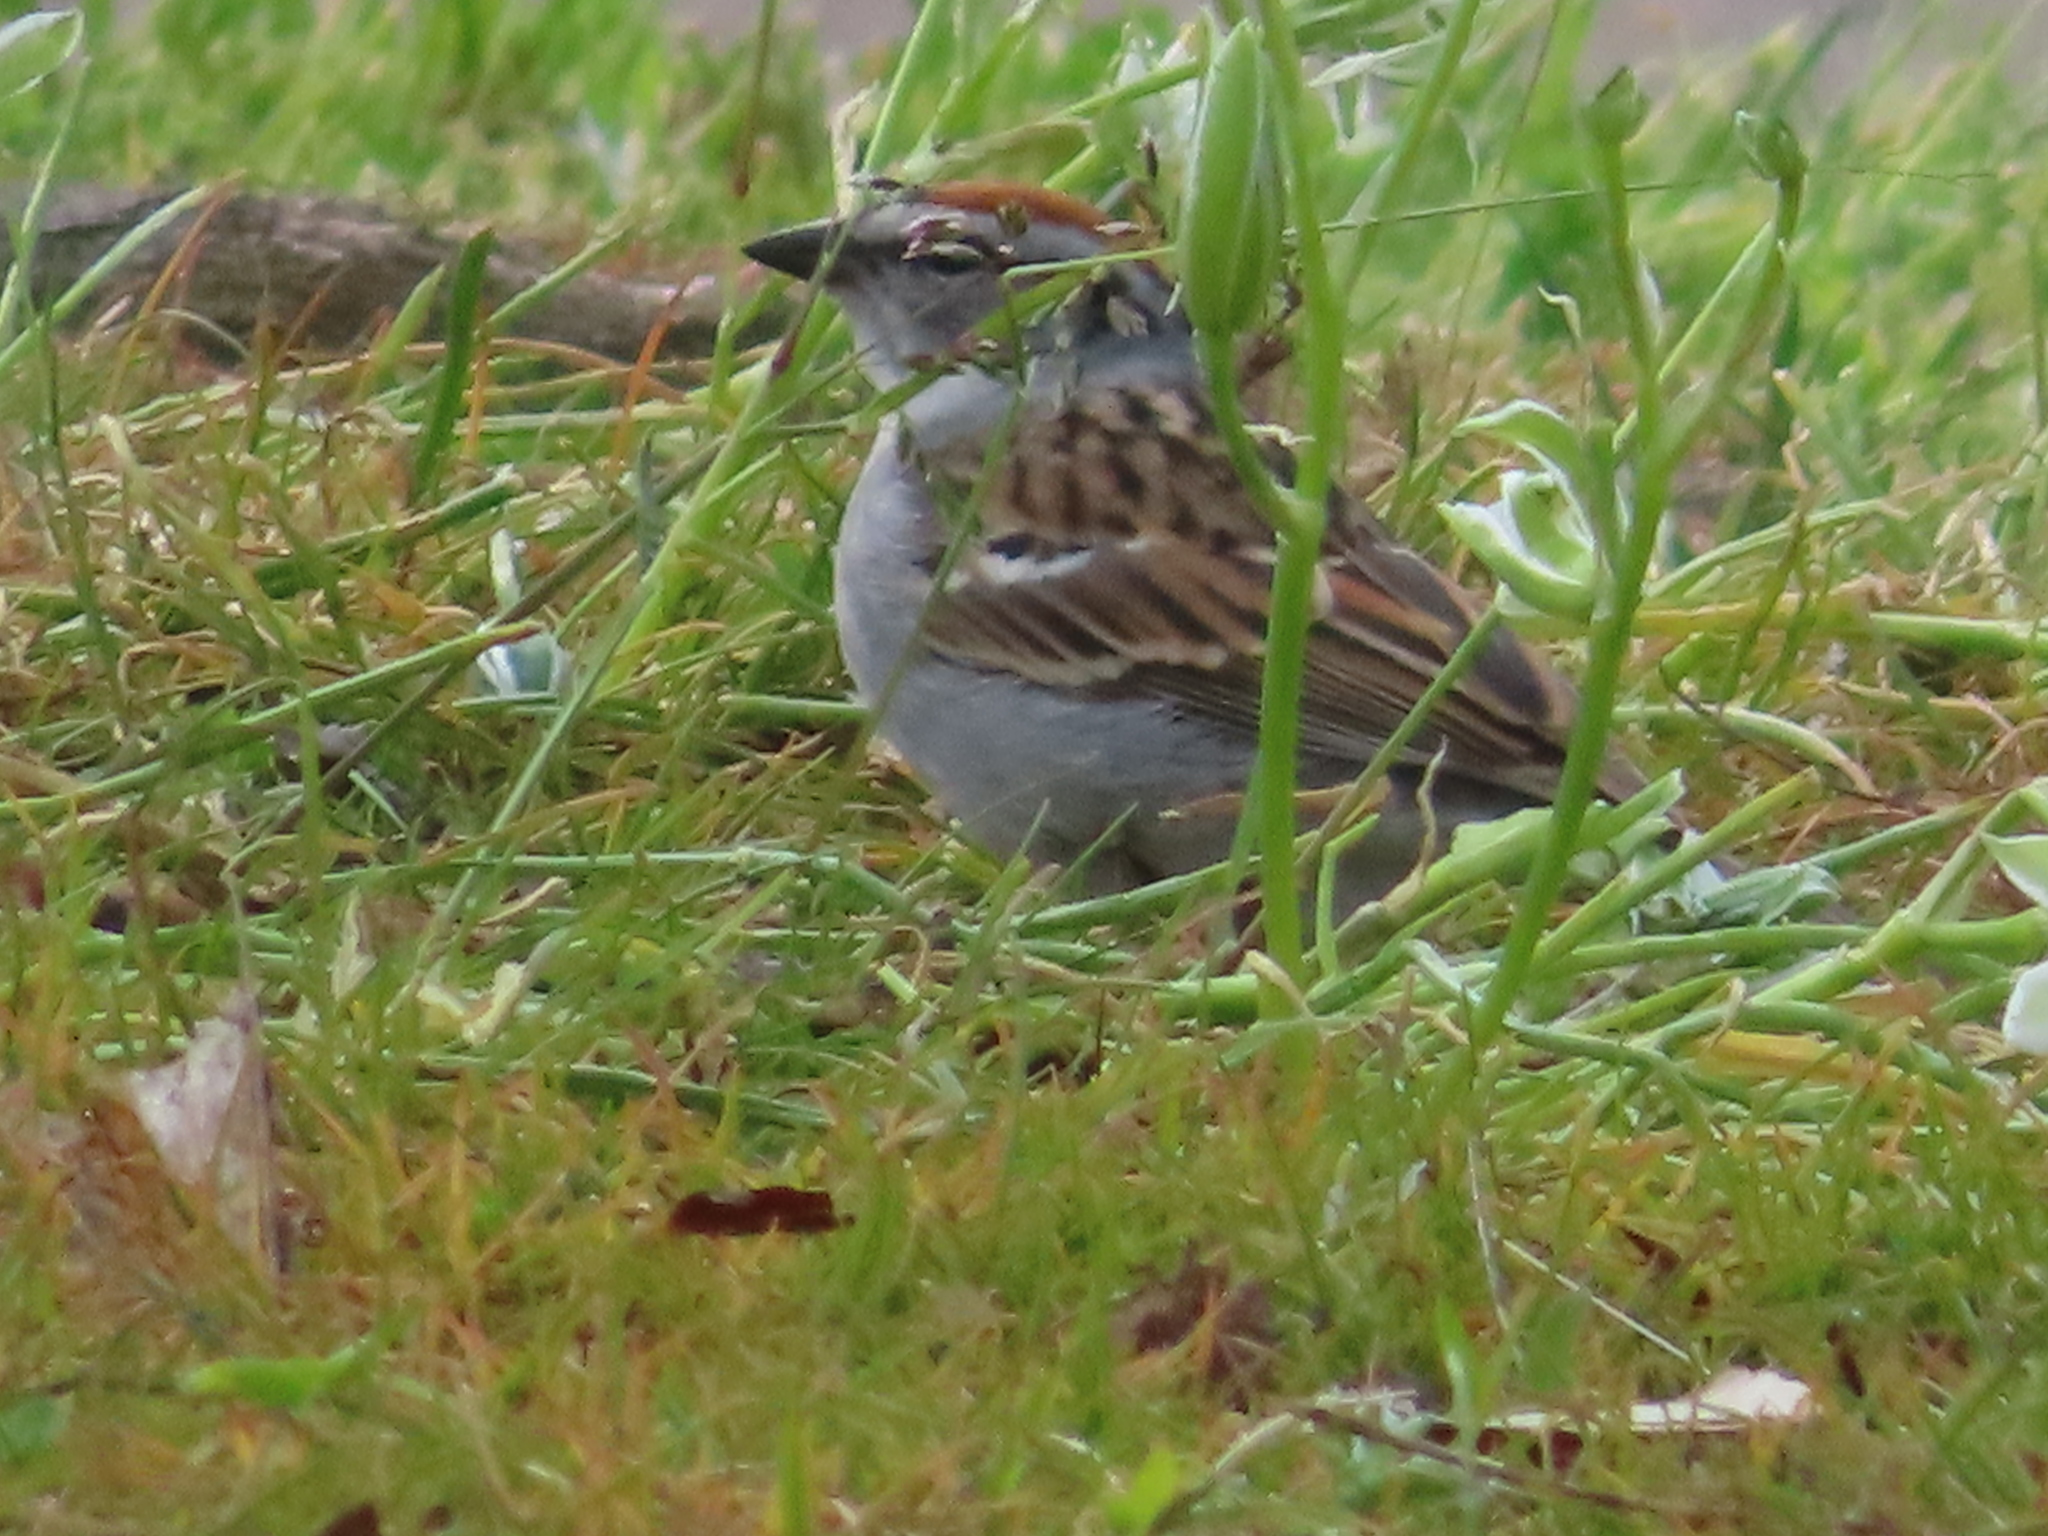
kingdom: Animalia
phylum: Chordata
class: Aves
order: Passeriformes
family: Passerellidae
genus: Spizella
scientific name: Spizella passerina
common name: Chipping sparrow
